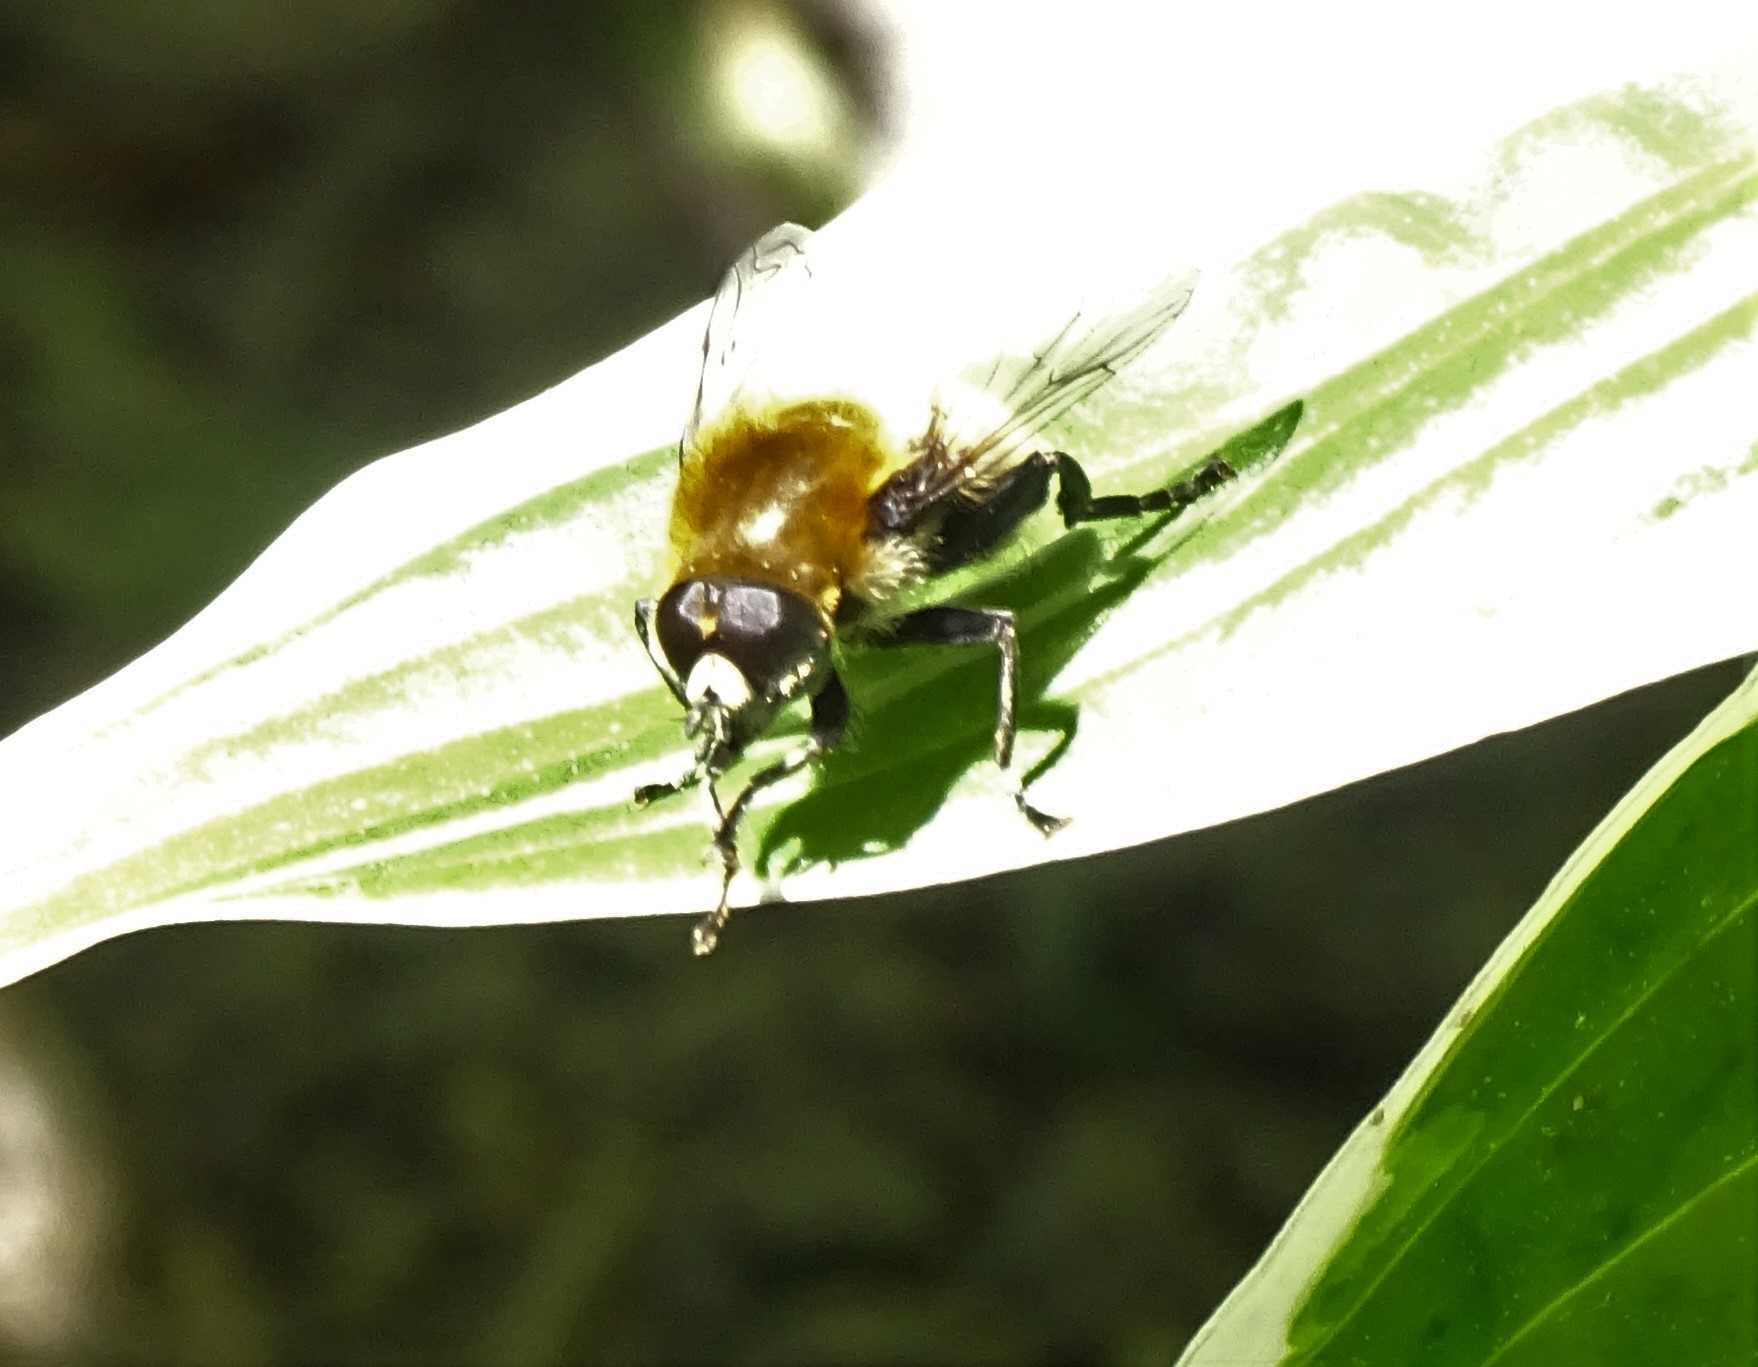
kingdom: Animalia
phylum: Arthropoda
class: Insecta
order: Diptera
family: Syrphidae
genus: Merodon
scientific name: Merodon equestris
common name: Greater bulb-fly
